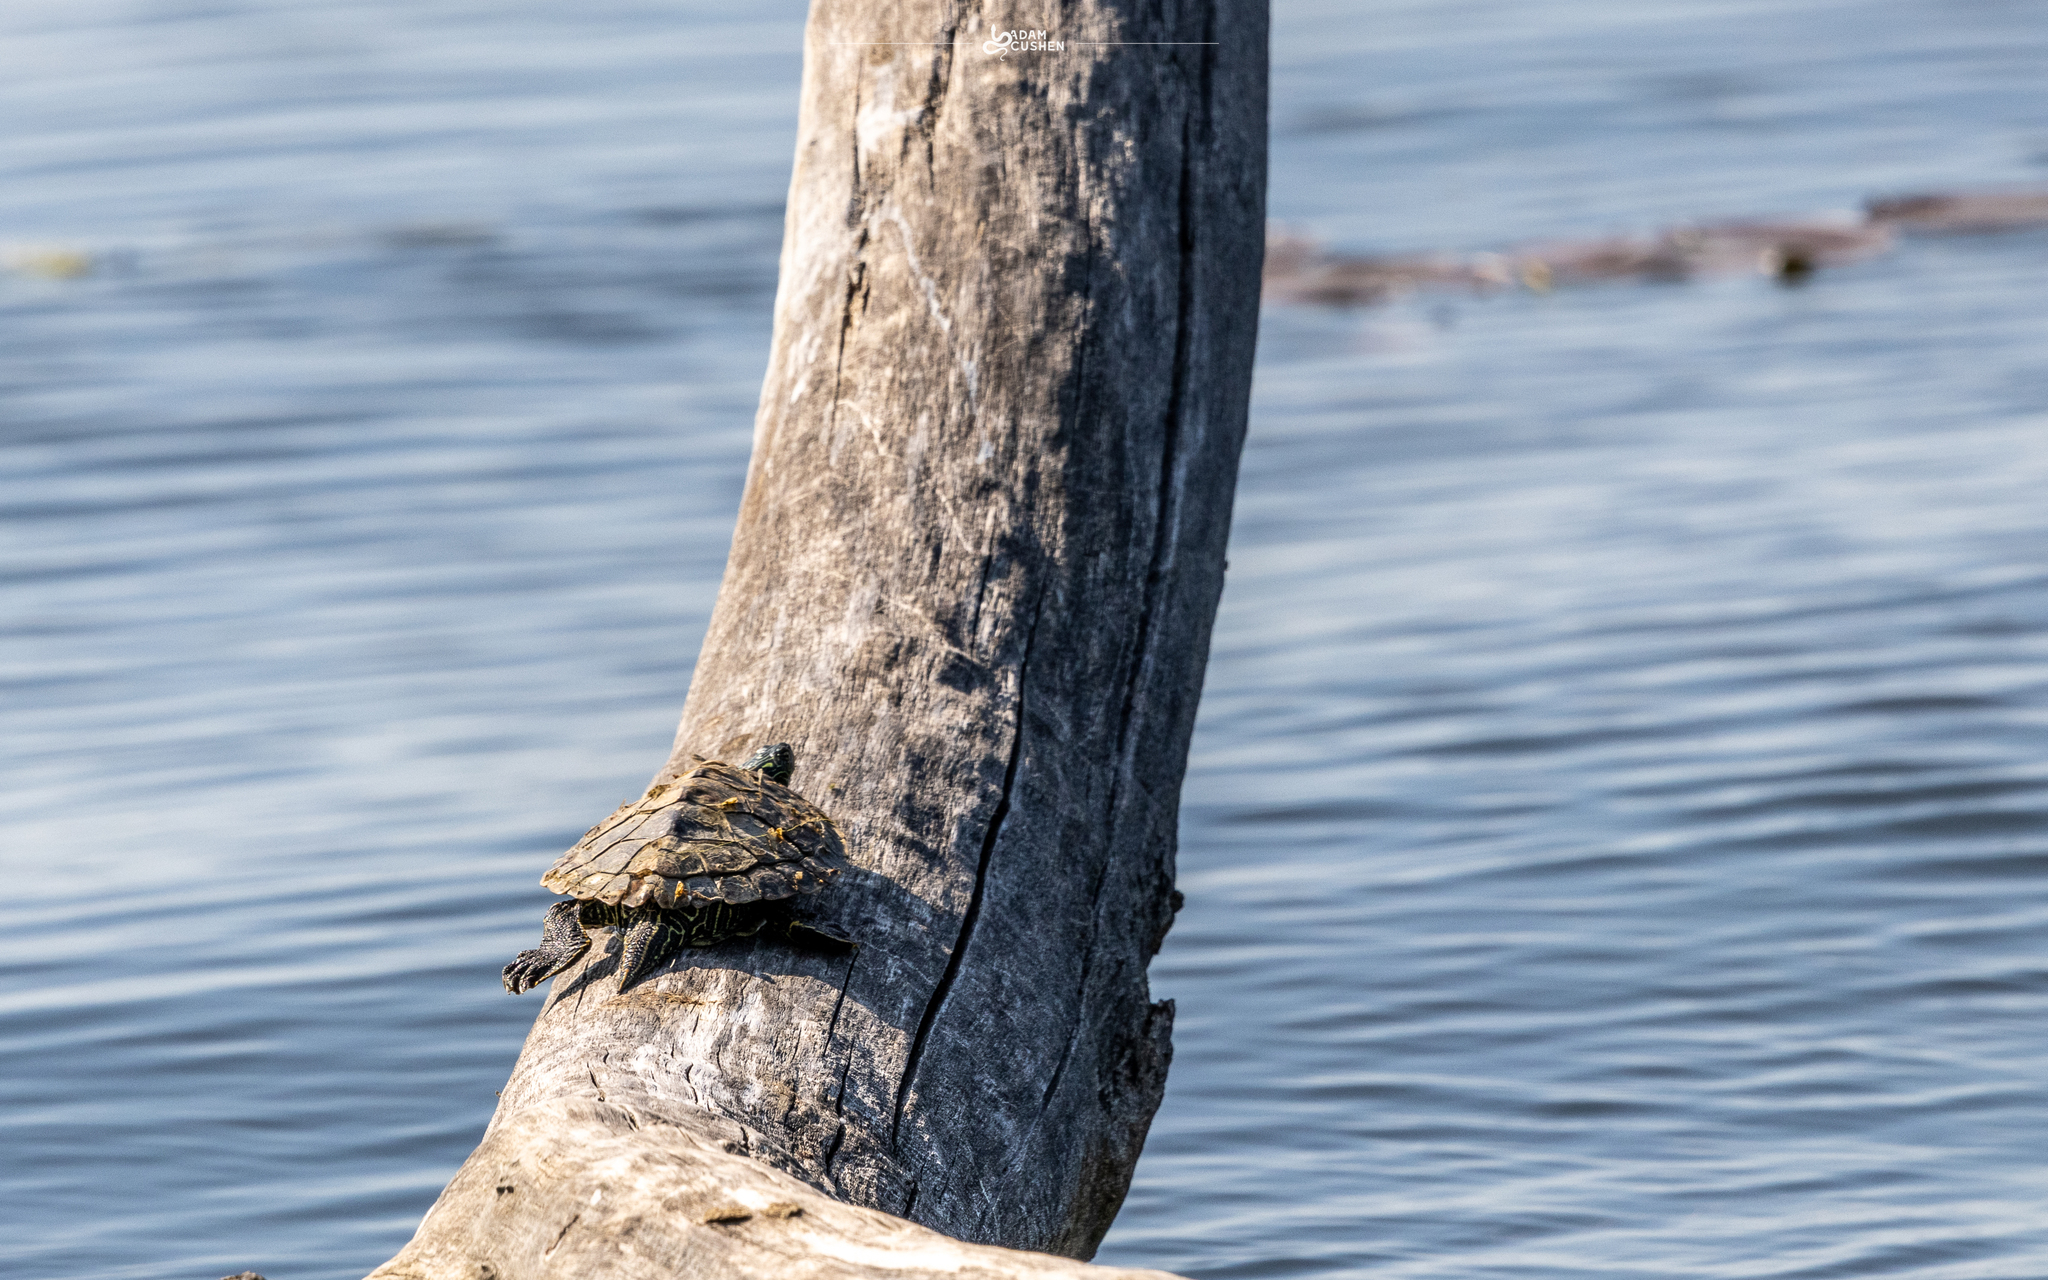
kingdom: Animalia
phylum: Chordata
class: Testudines
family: Emydidae
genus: Graptemys
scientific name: Graptemys geographica
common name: Common map turtle
